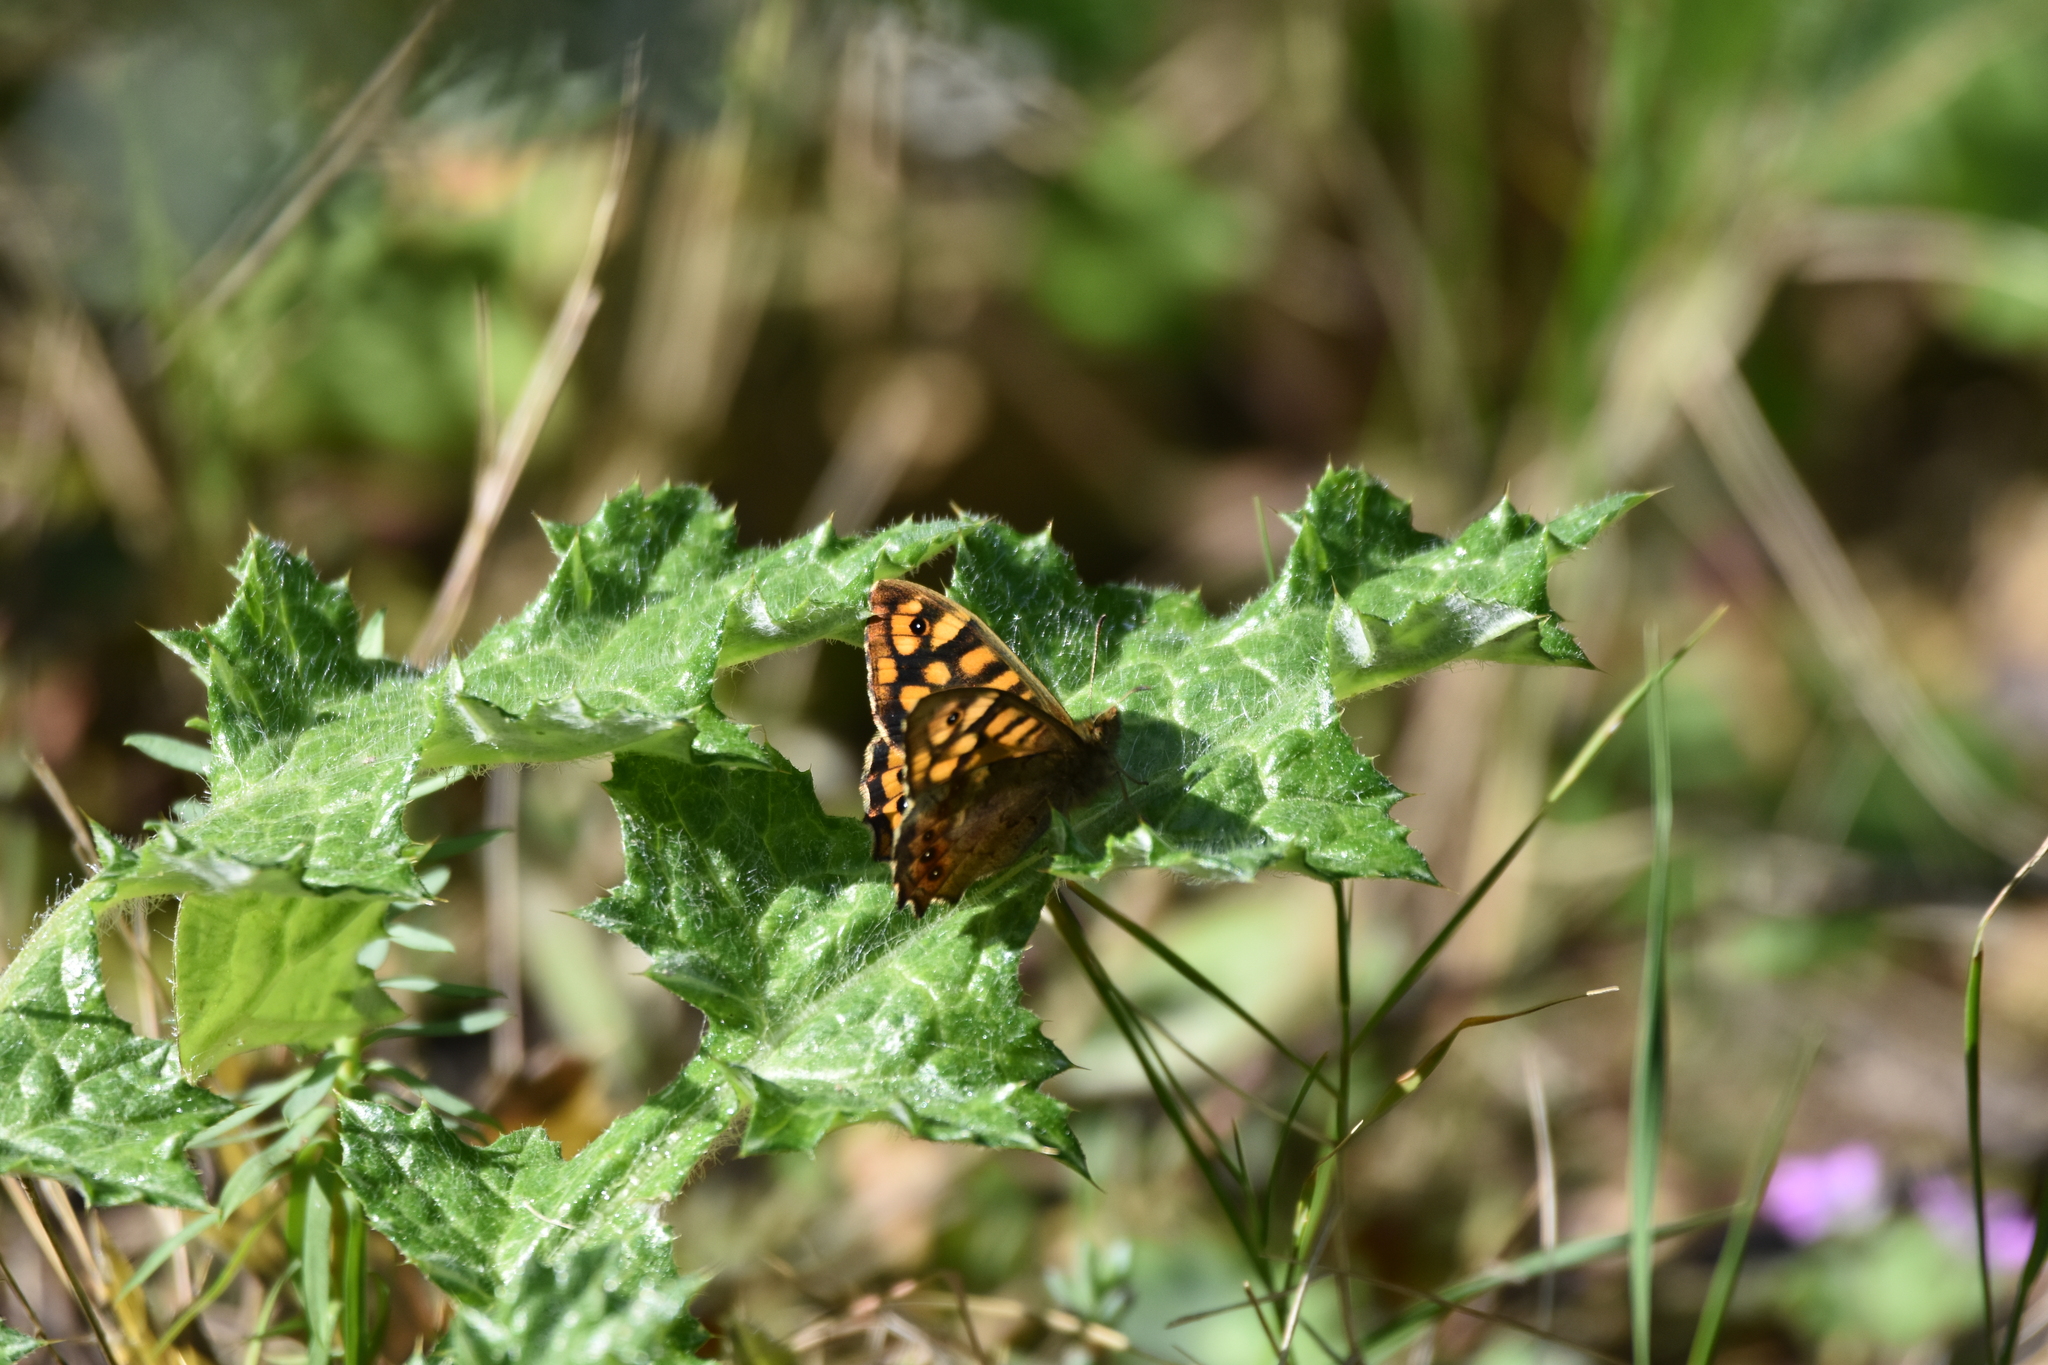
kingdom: Animalia
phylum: Arthropoda
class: Insecta
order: Lepidoptera
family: Nymphalidae
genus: Pararge
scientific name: Pararge aegeria
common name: Speckled wood
